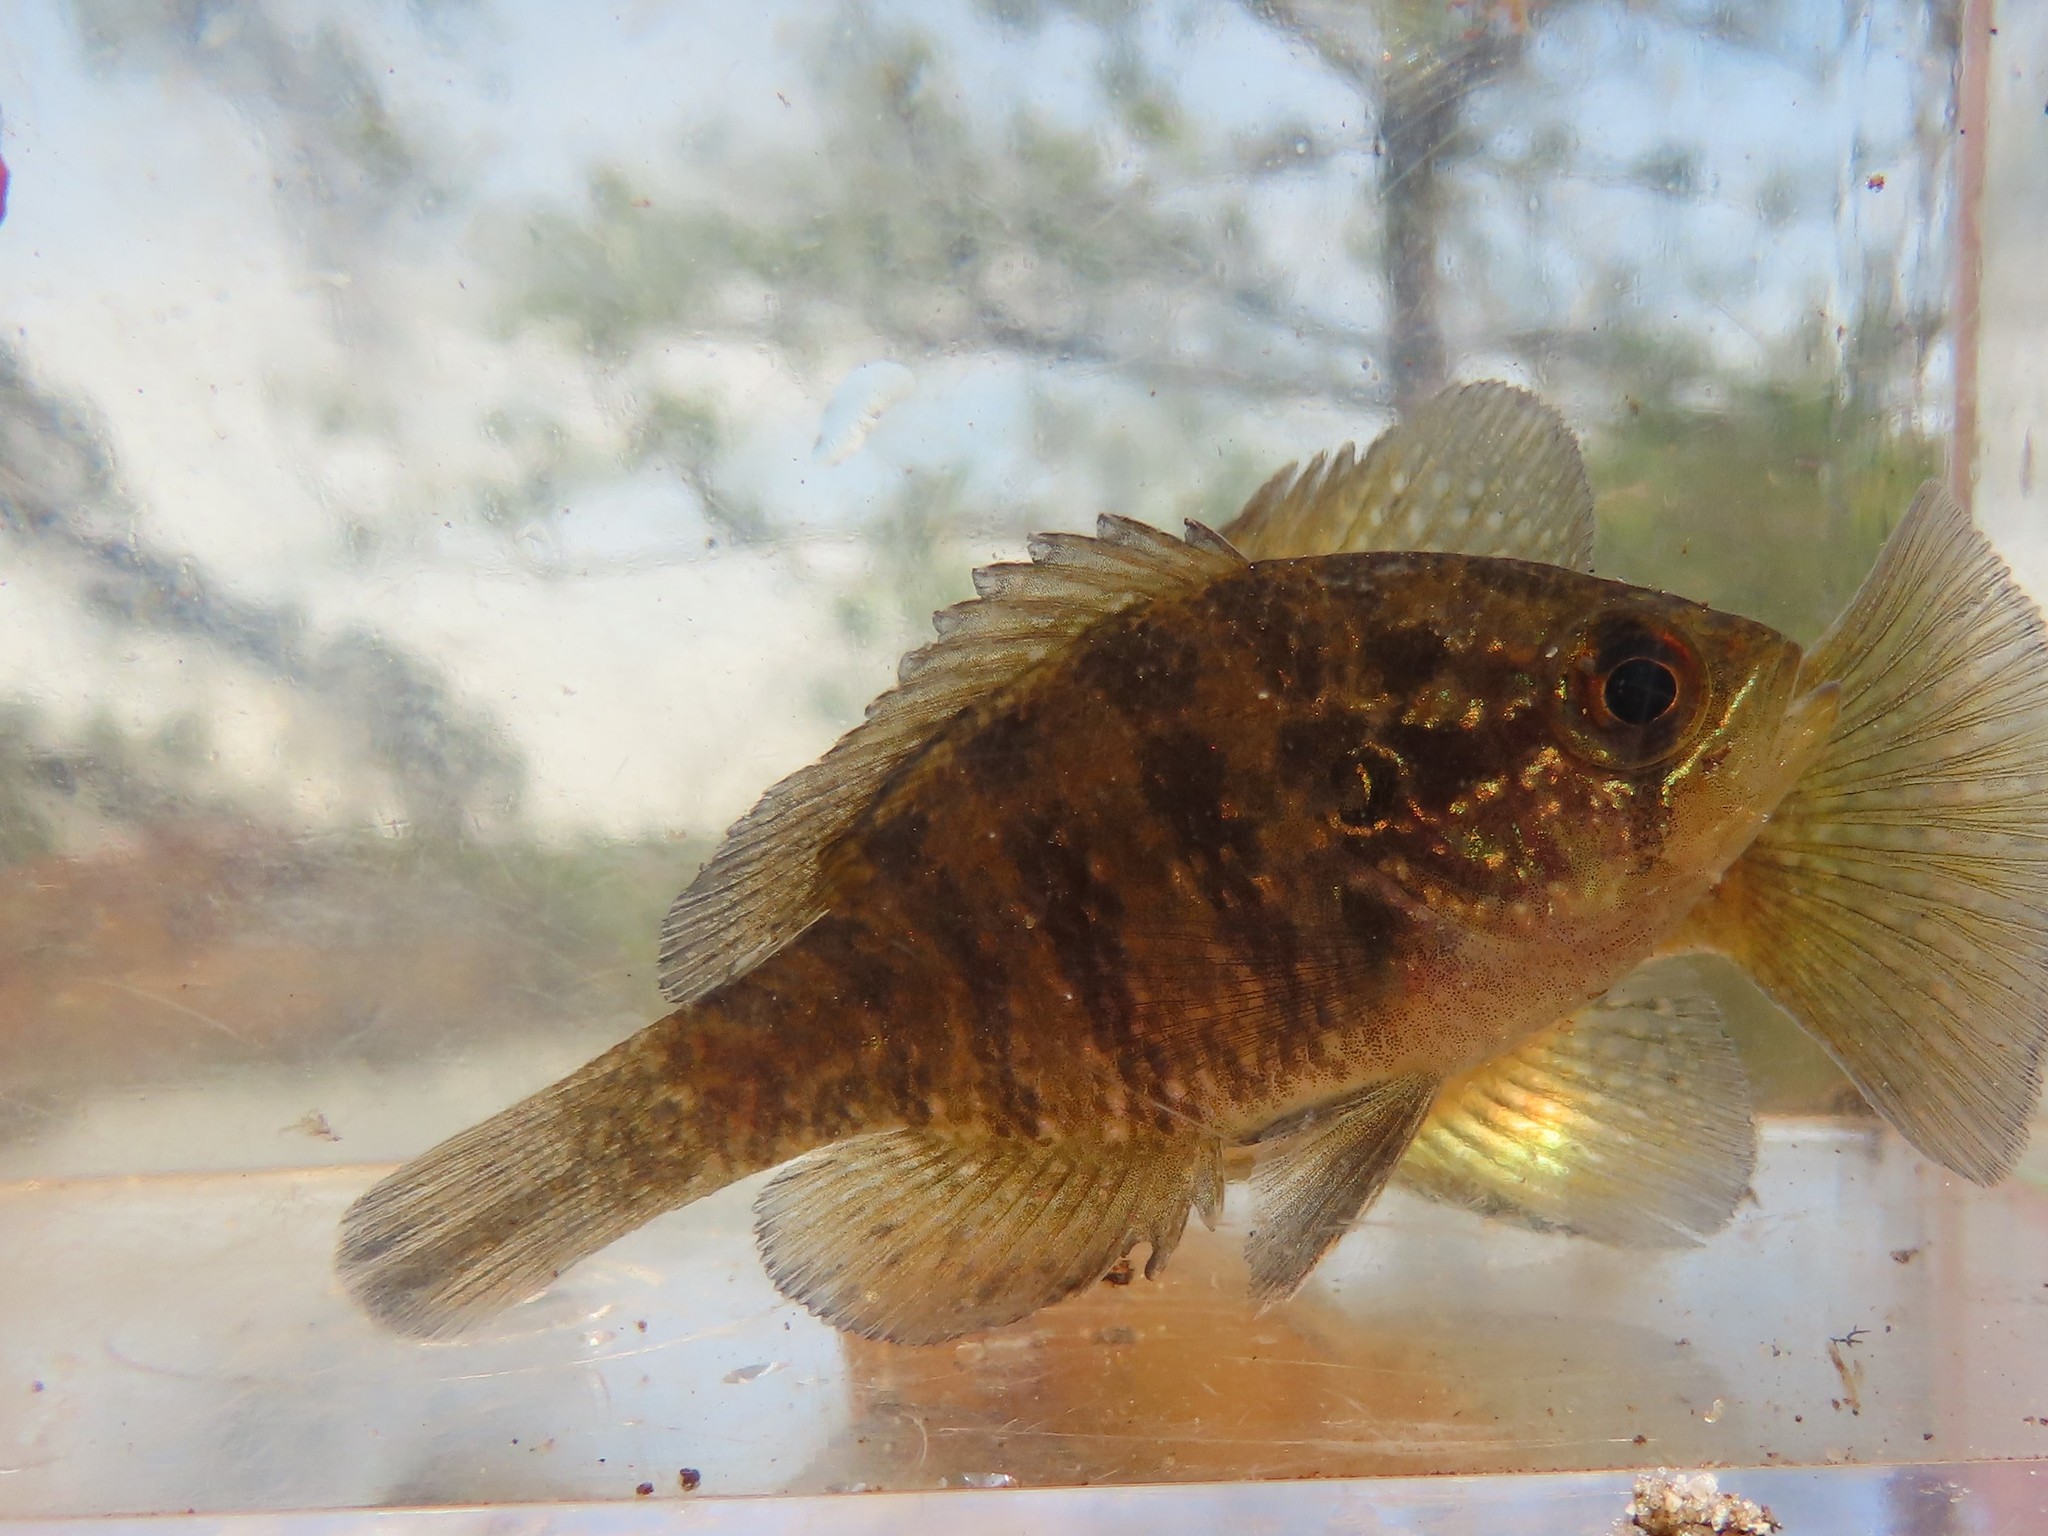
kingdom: Animalia
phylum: Chordata
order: Perciformes
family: Centrarchidae
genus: Enneacanthus
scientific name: Enneacanthus obesus
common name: Banded sunfish
